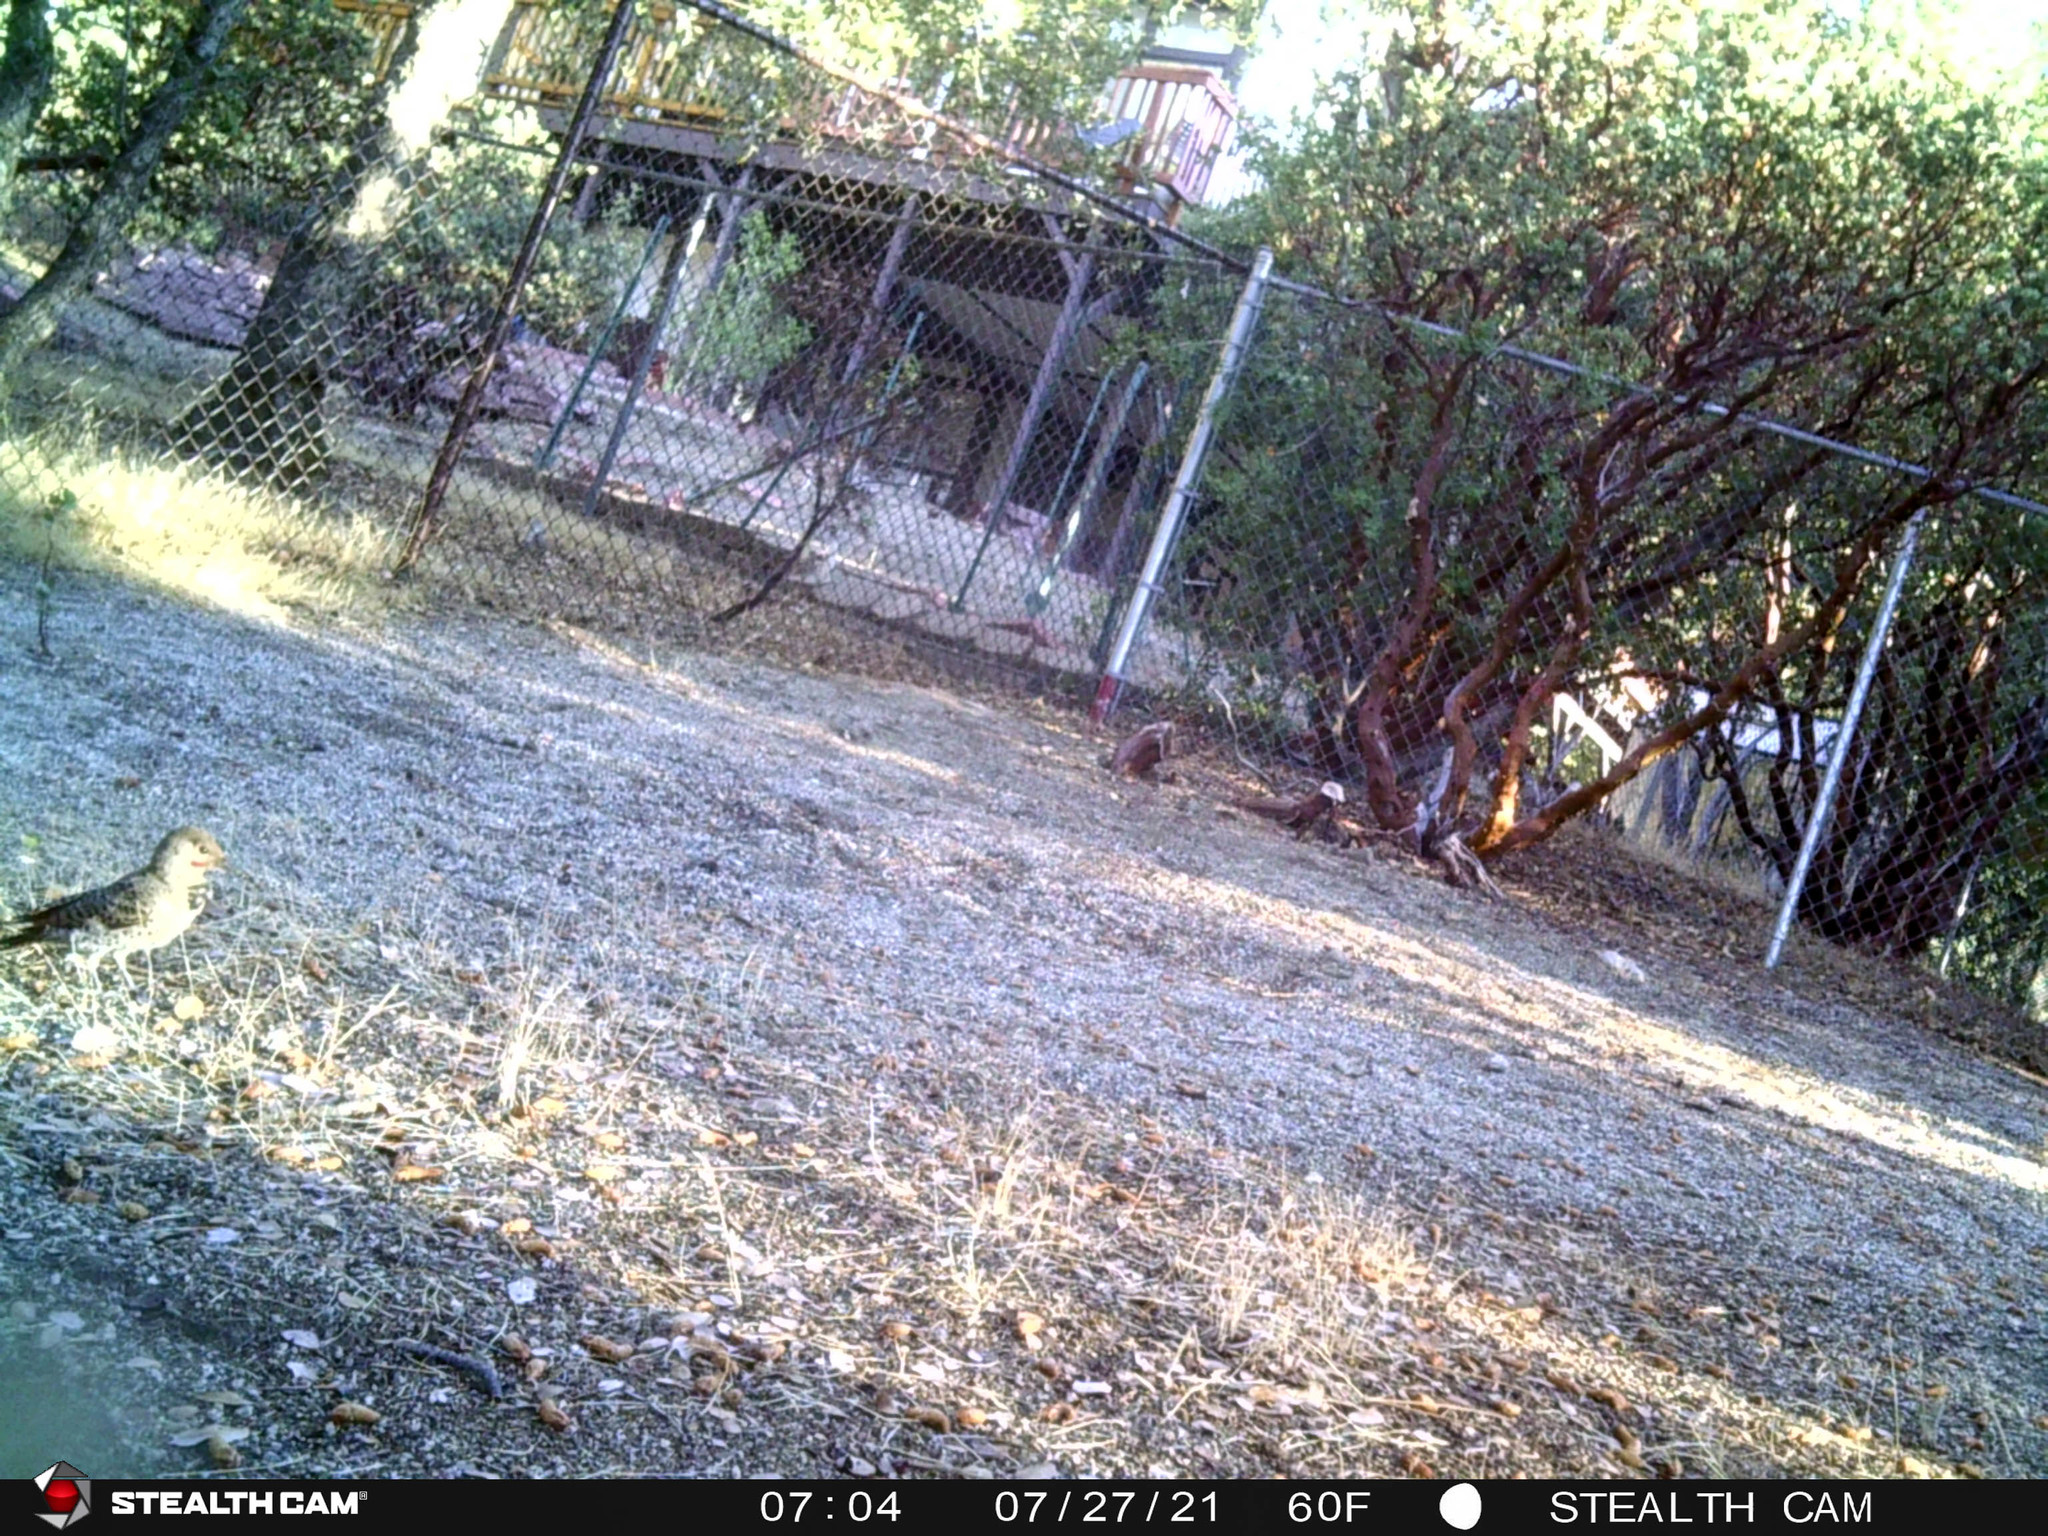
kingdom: Animalia
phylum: Chordata
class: Aves
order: Piciformes
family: Picidae
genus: Colaptes
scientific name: Colaptes auratus
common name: Northern flicker
